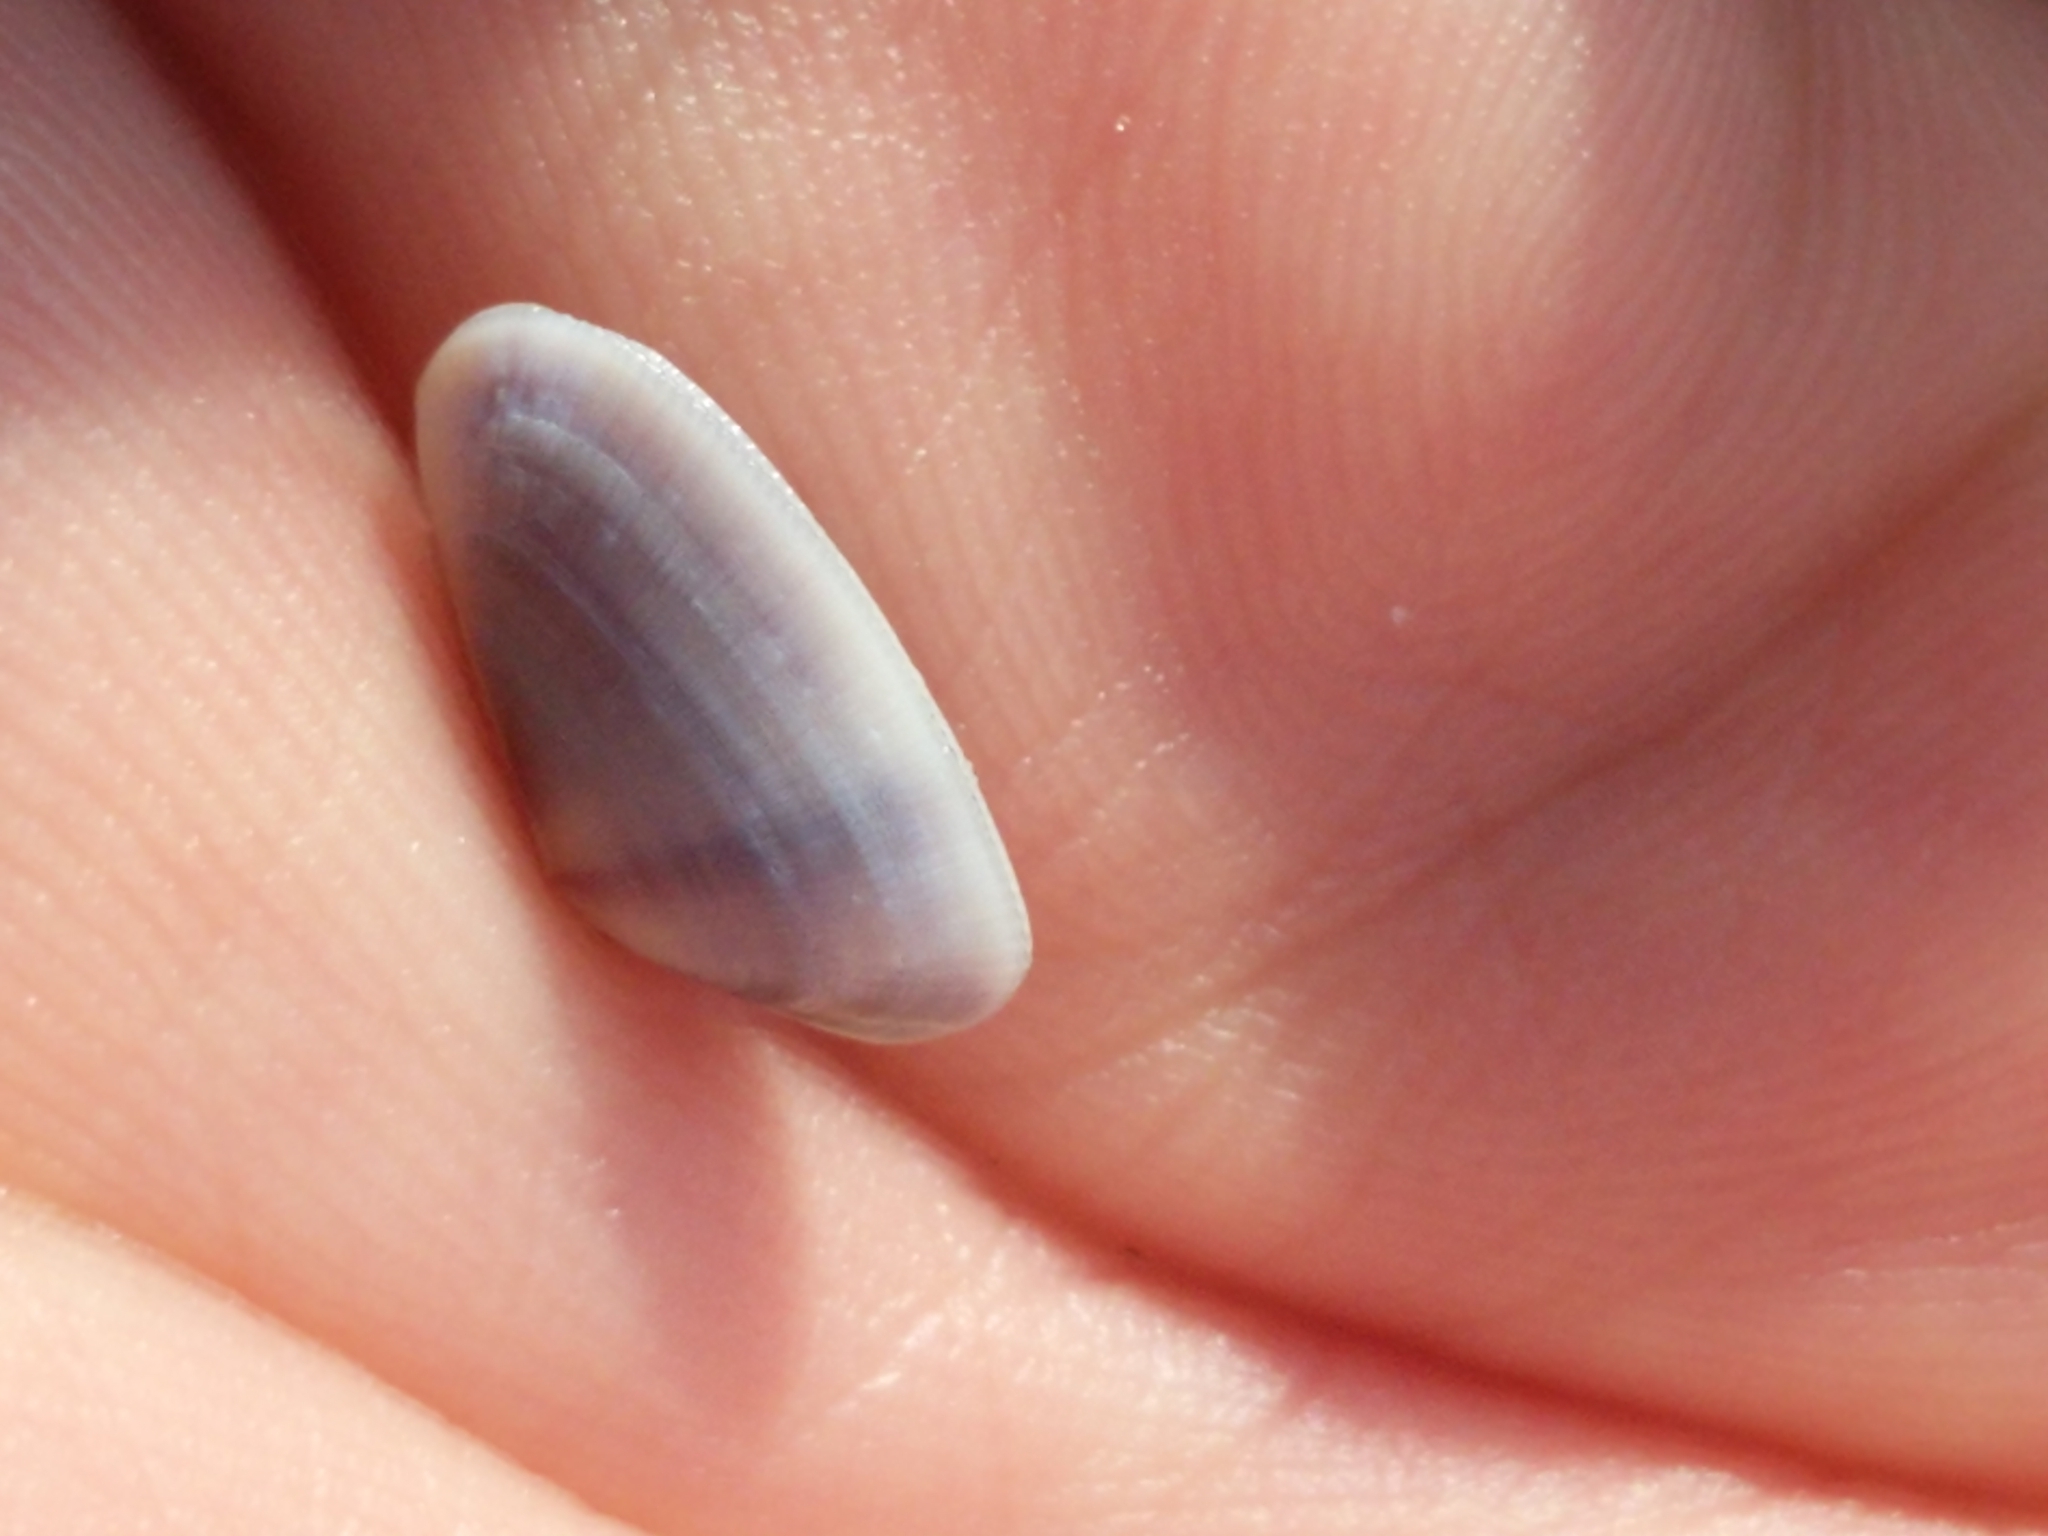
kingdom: Animalia
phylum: Mollusca
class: Bivalvia
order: Cardiida
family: Donacidae
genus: Donax
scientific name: Donax fossor
